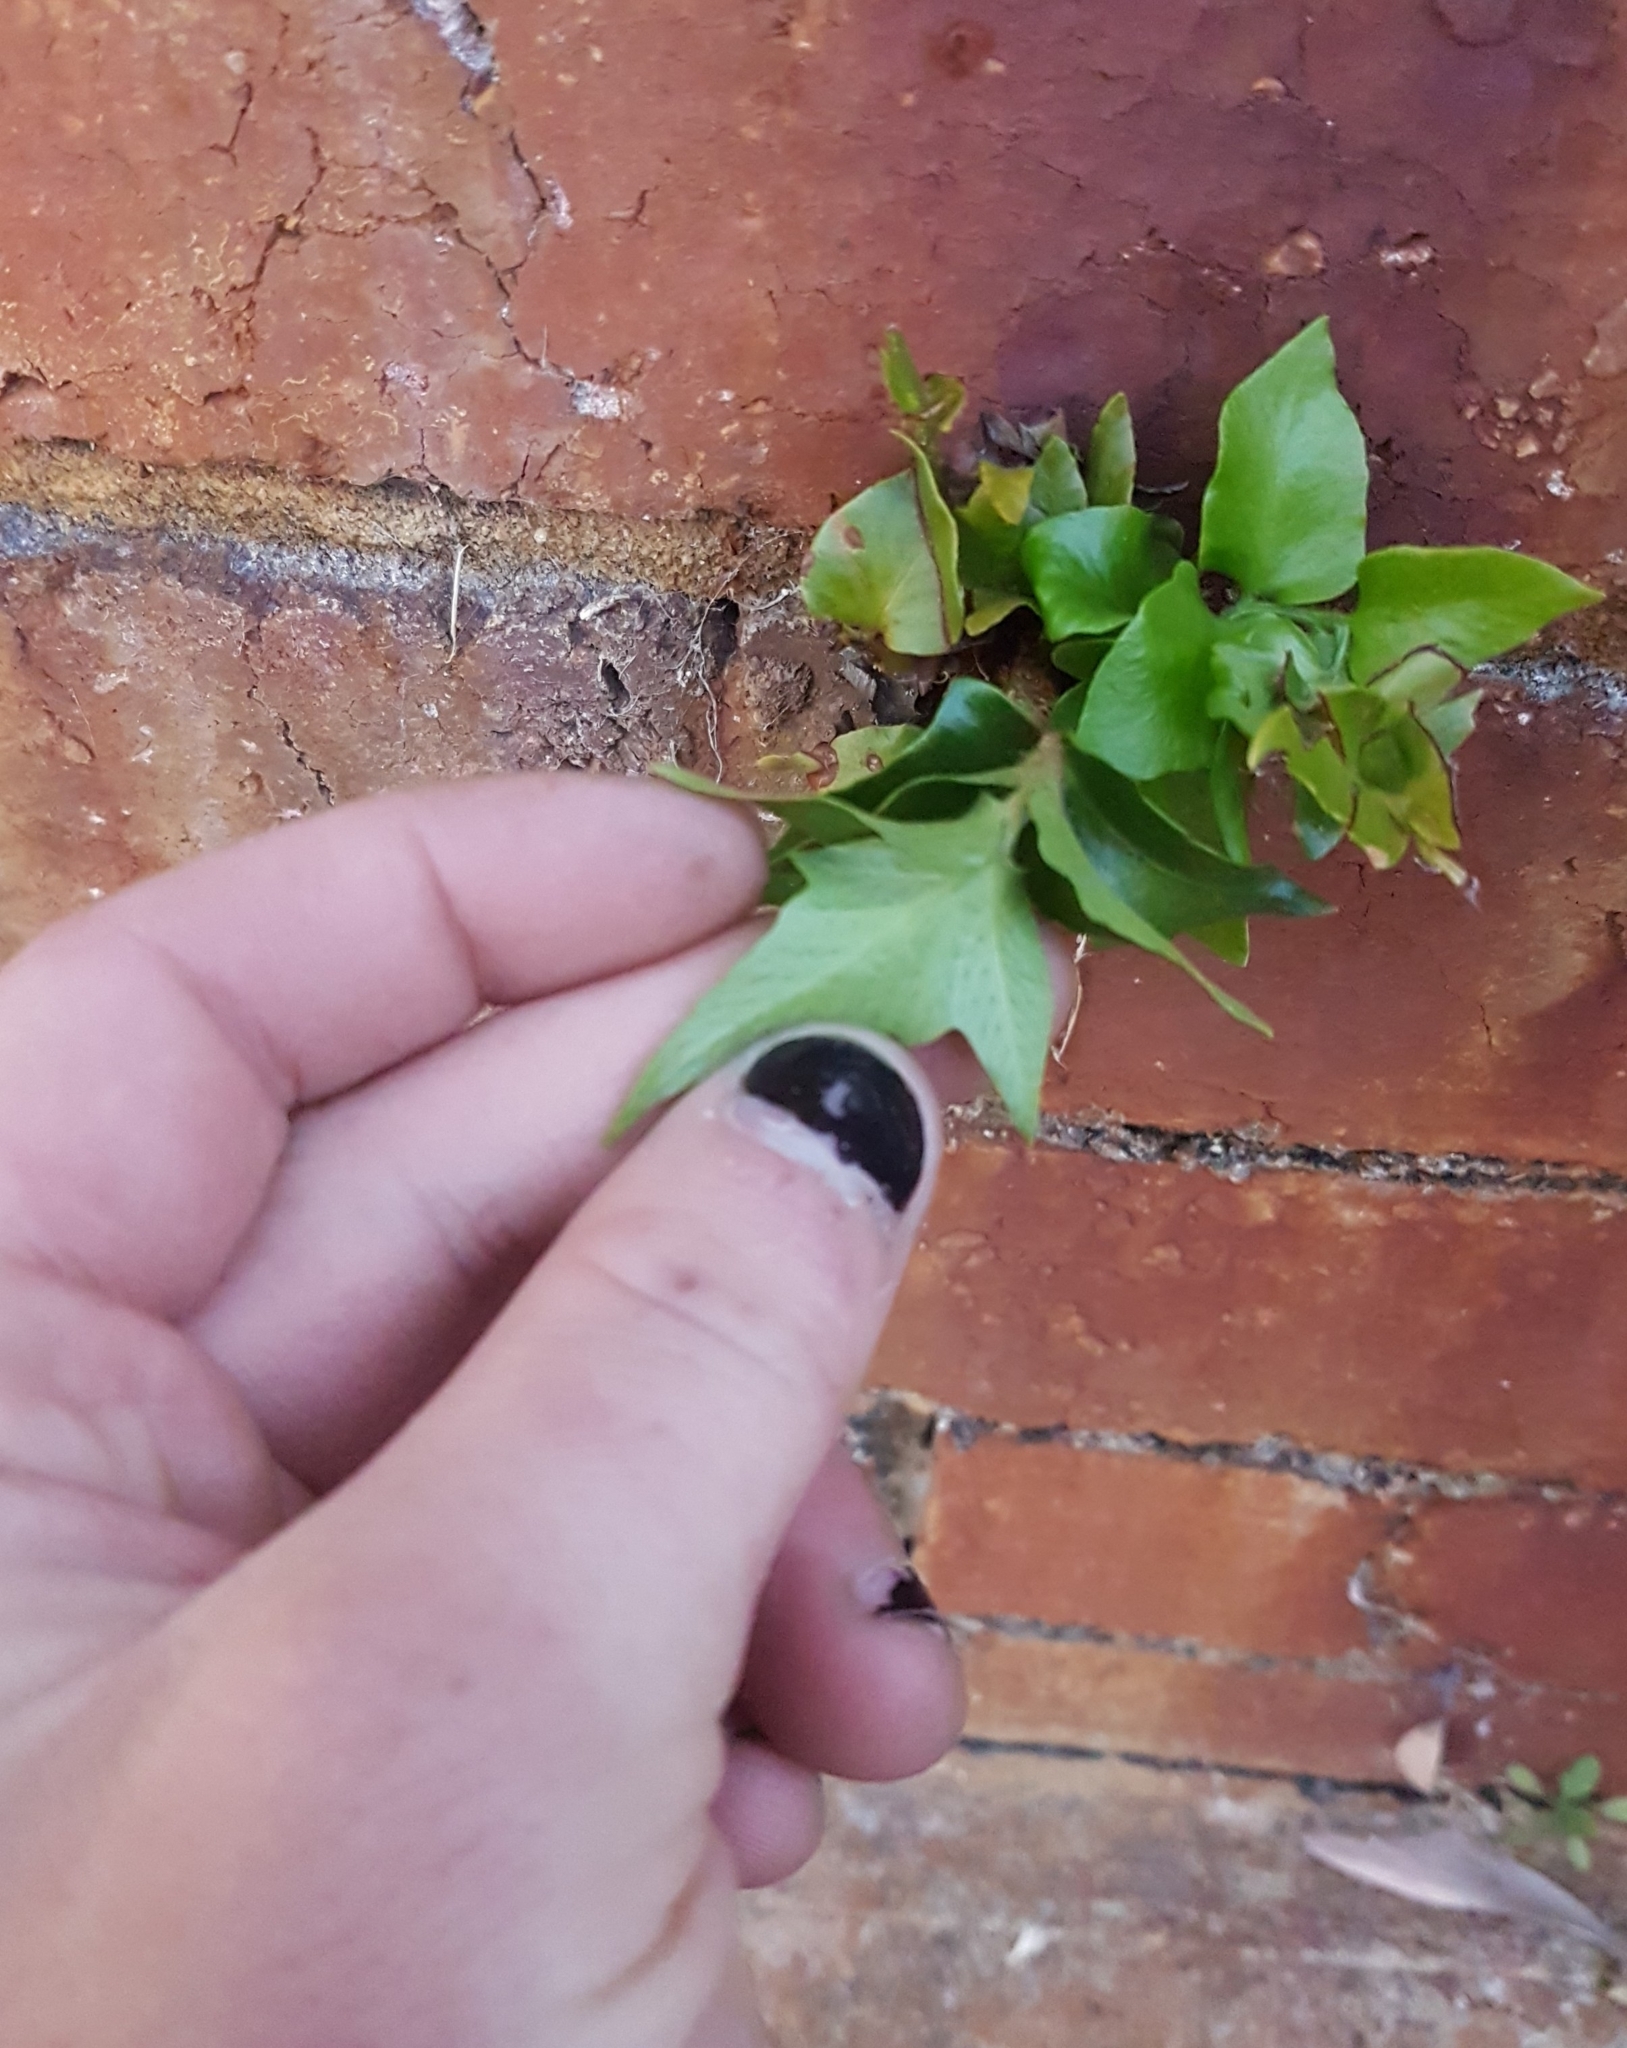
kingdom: Plantae
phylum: Tracheophyta
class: Polypodiopsida
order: Polypodiales
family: Dryopteridaceae
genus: Cyrtomium
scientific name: Cyrtomium falcatum
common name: House holly-fern
